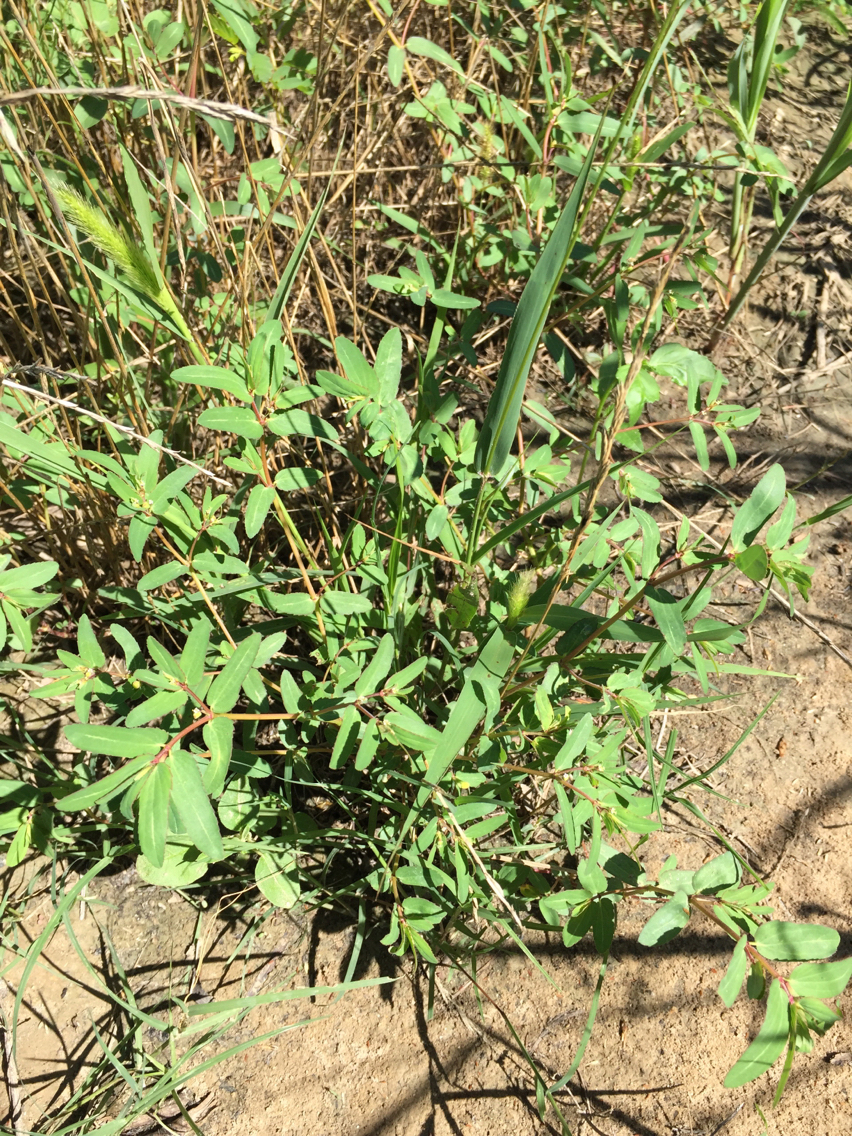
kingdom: Plantae
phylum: Tracheophyta
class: Magnoliopsida
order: Malpighiales
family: Euphorbiaceae
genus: Euphorbia
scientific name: Euphorbia nutans
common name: Eyebane
